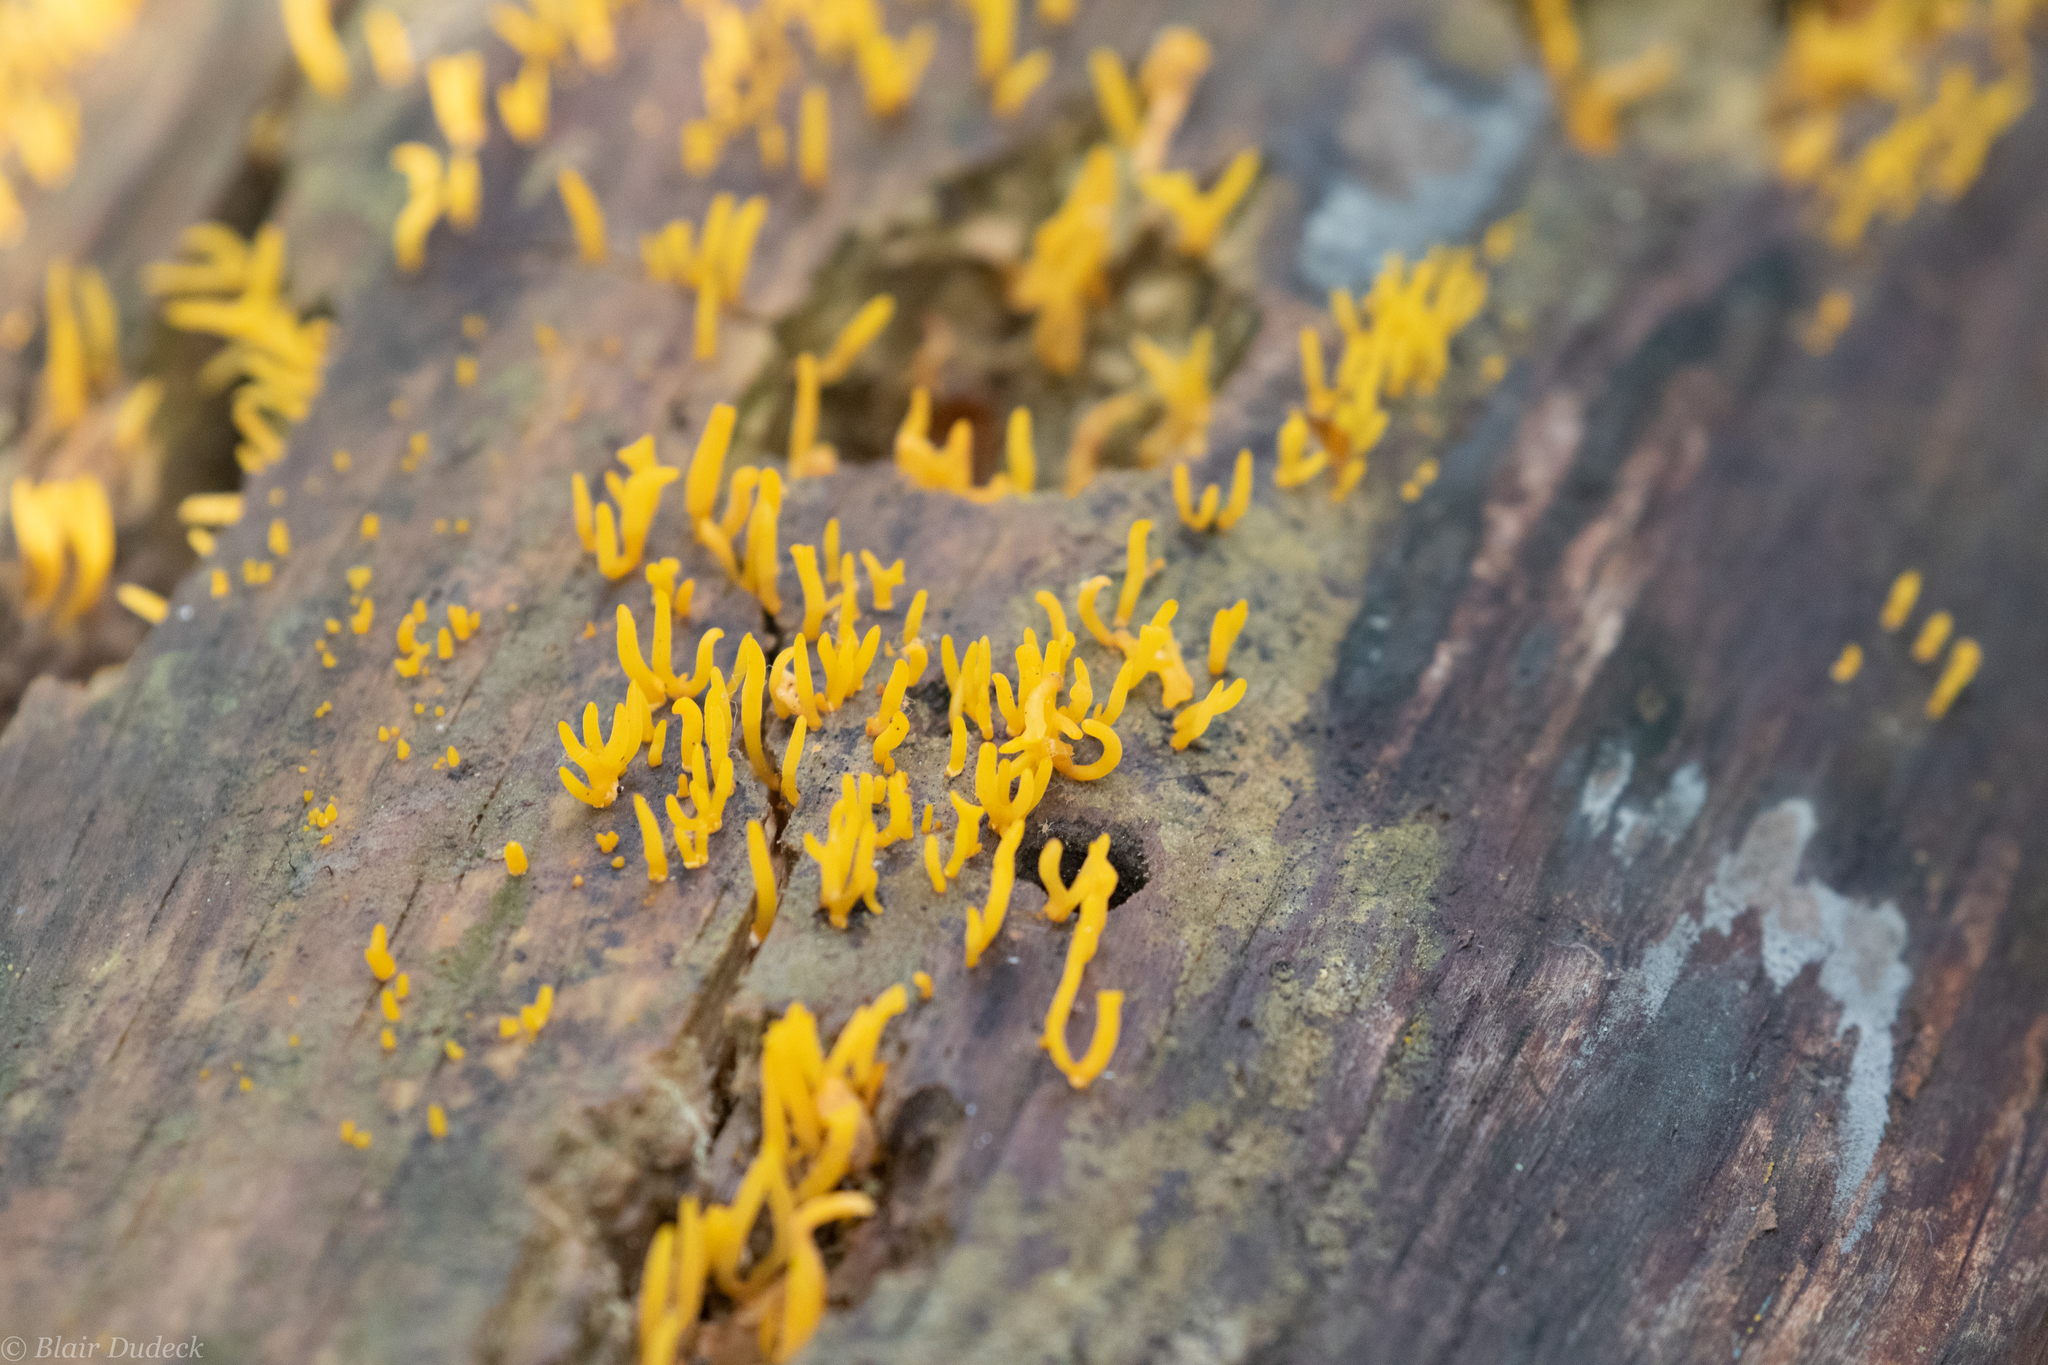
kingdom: Fungi
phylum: Basidiomycota
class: Dacrymycetes
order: Dacrymycetales
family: Dacrymycetaceae
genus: Calocera
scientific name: Calocera cornea
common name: Small stagshorn
